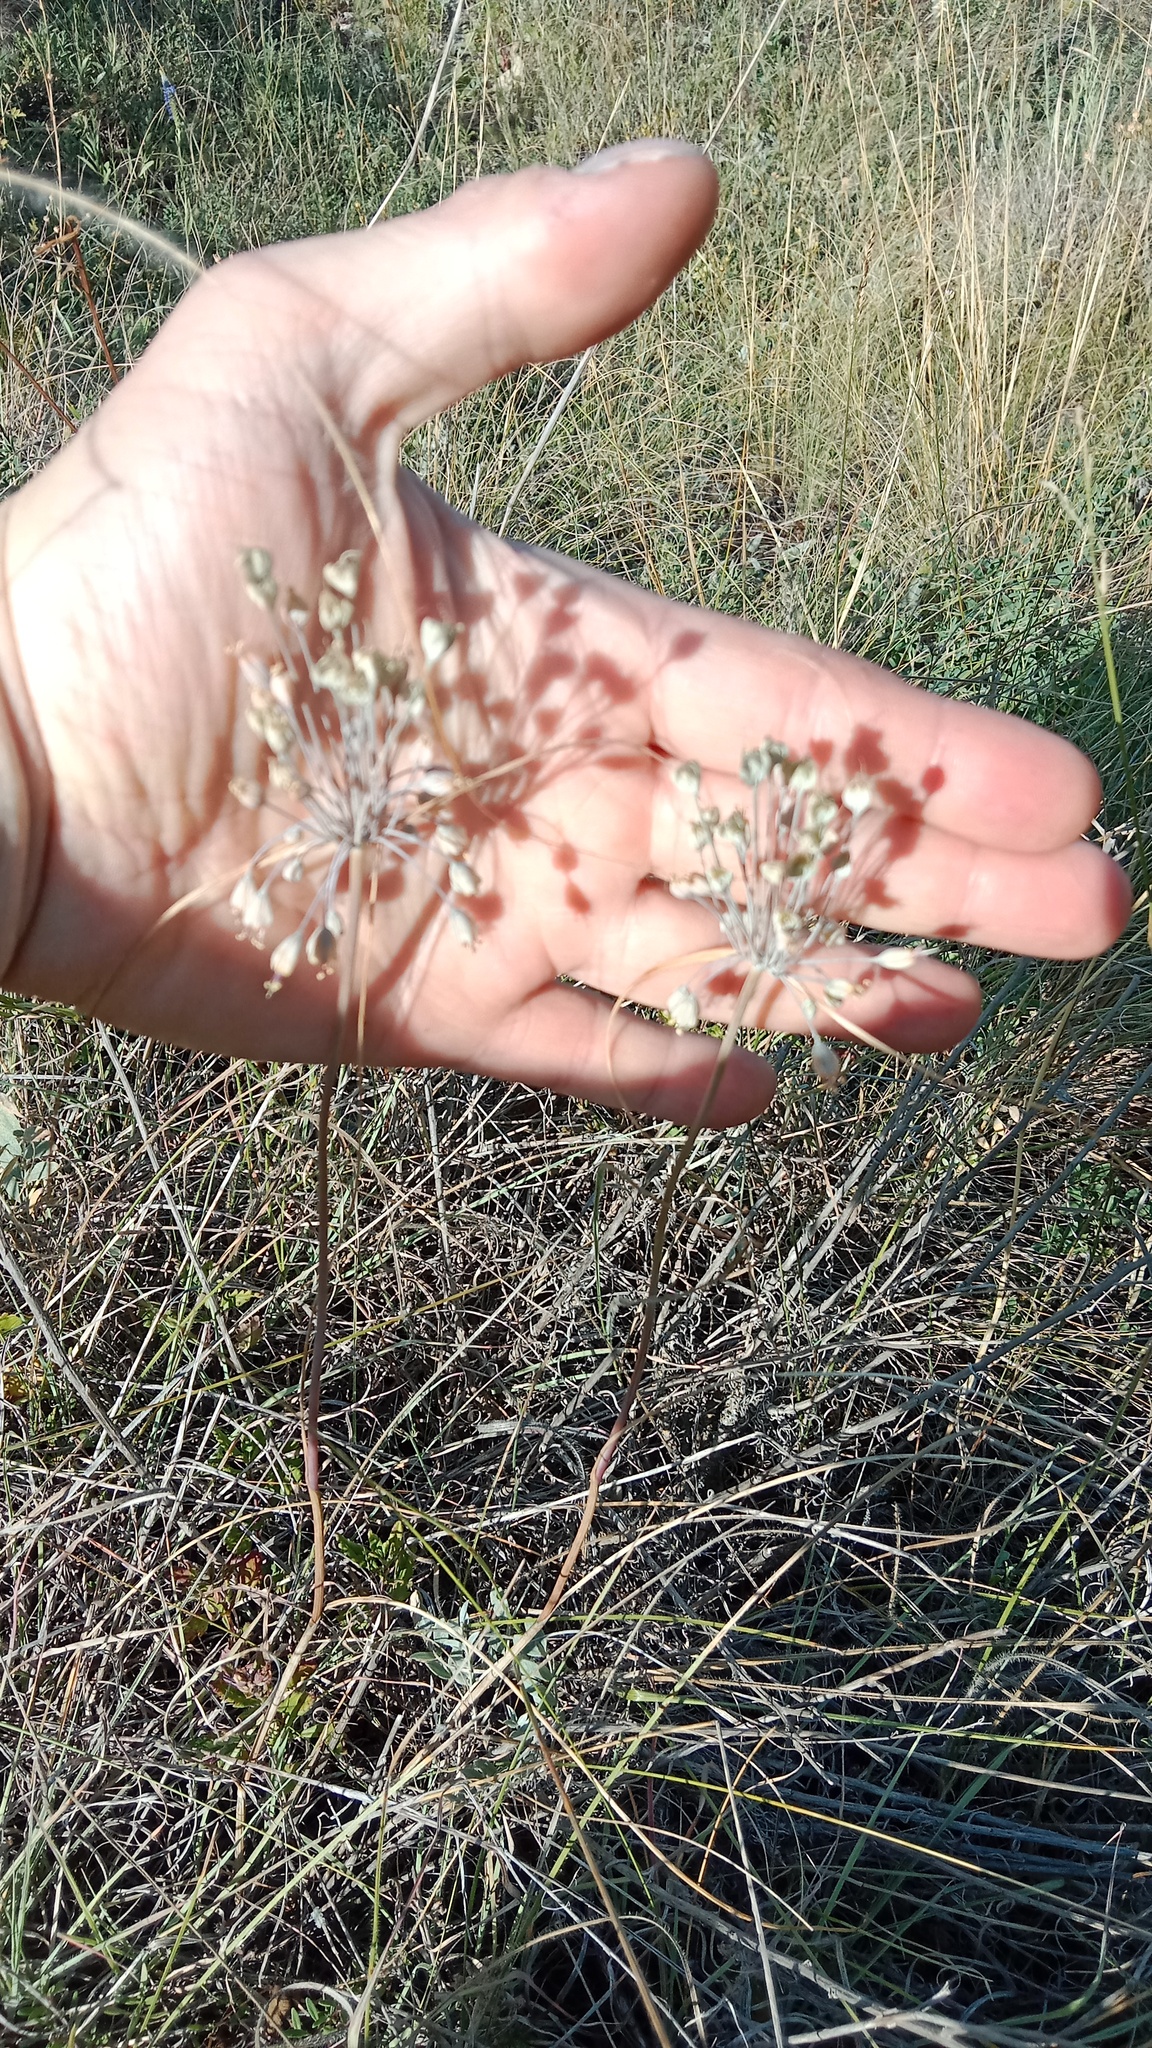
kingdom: Plantae
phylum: Tracheophyta
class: Liliopsida
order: Asparagales
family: Amaryllidaceae
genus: Allium
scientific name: Allium flavum
